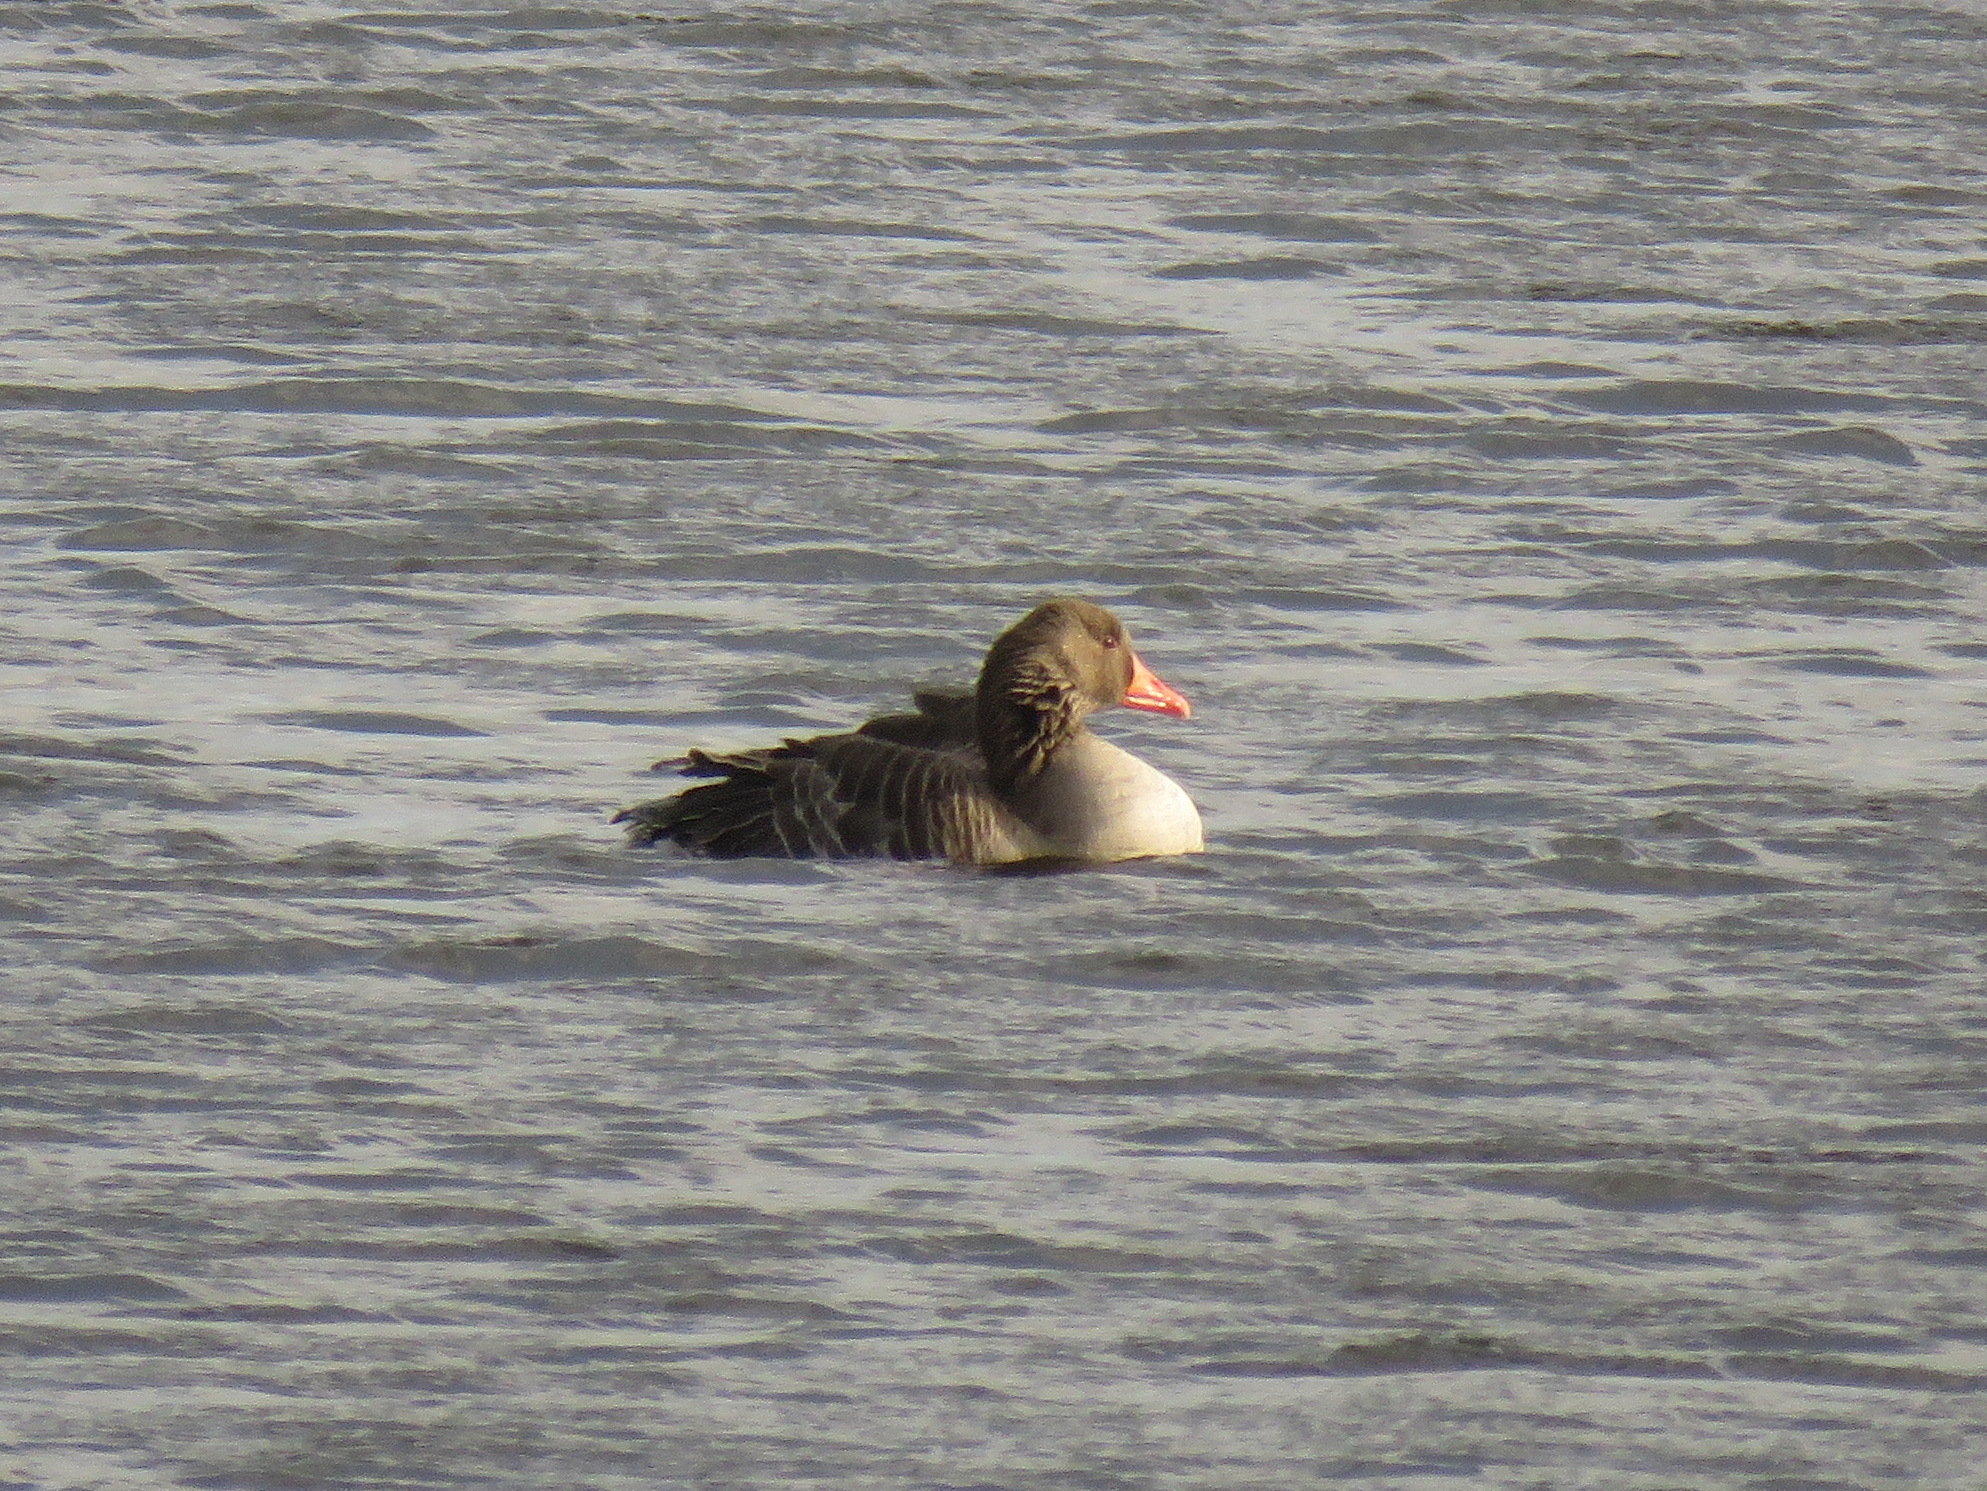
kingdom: Animalia
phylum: Chordata
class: Aves
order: Anseriformes
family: Anatidae
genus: Anser
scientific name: Anser anser
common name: Greylag goose
